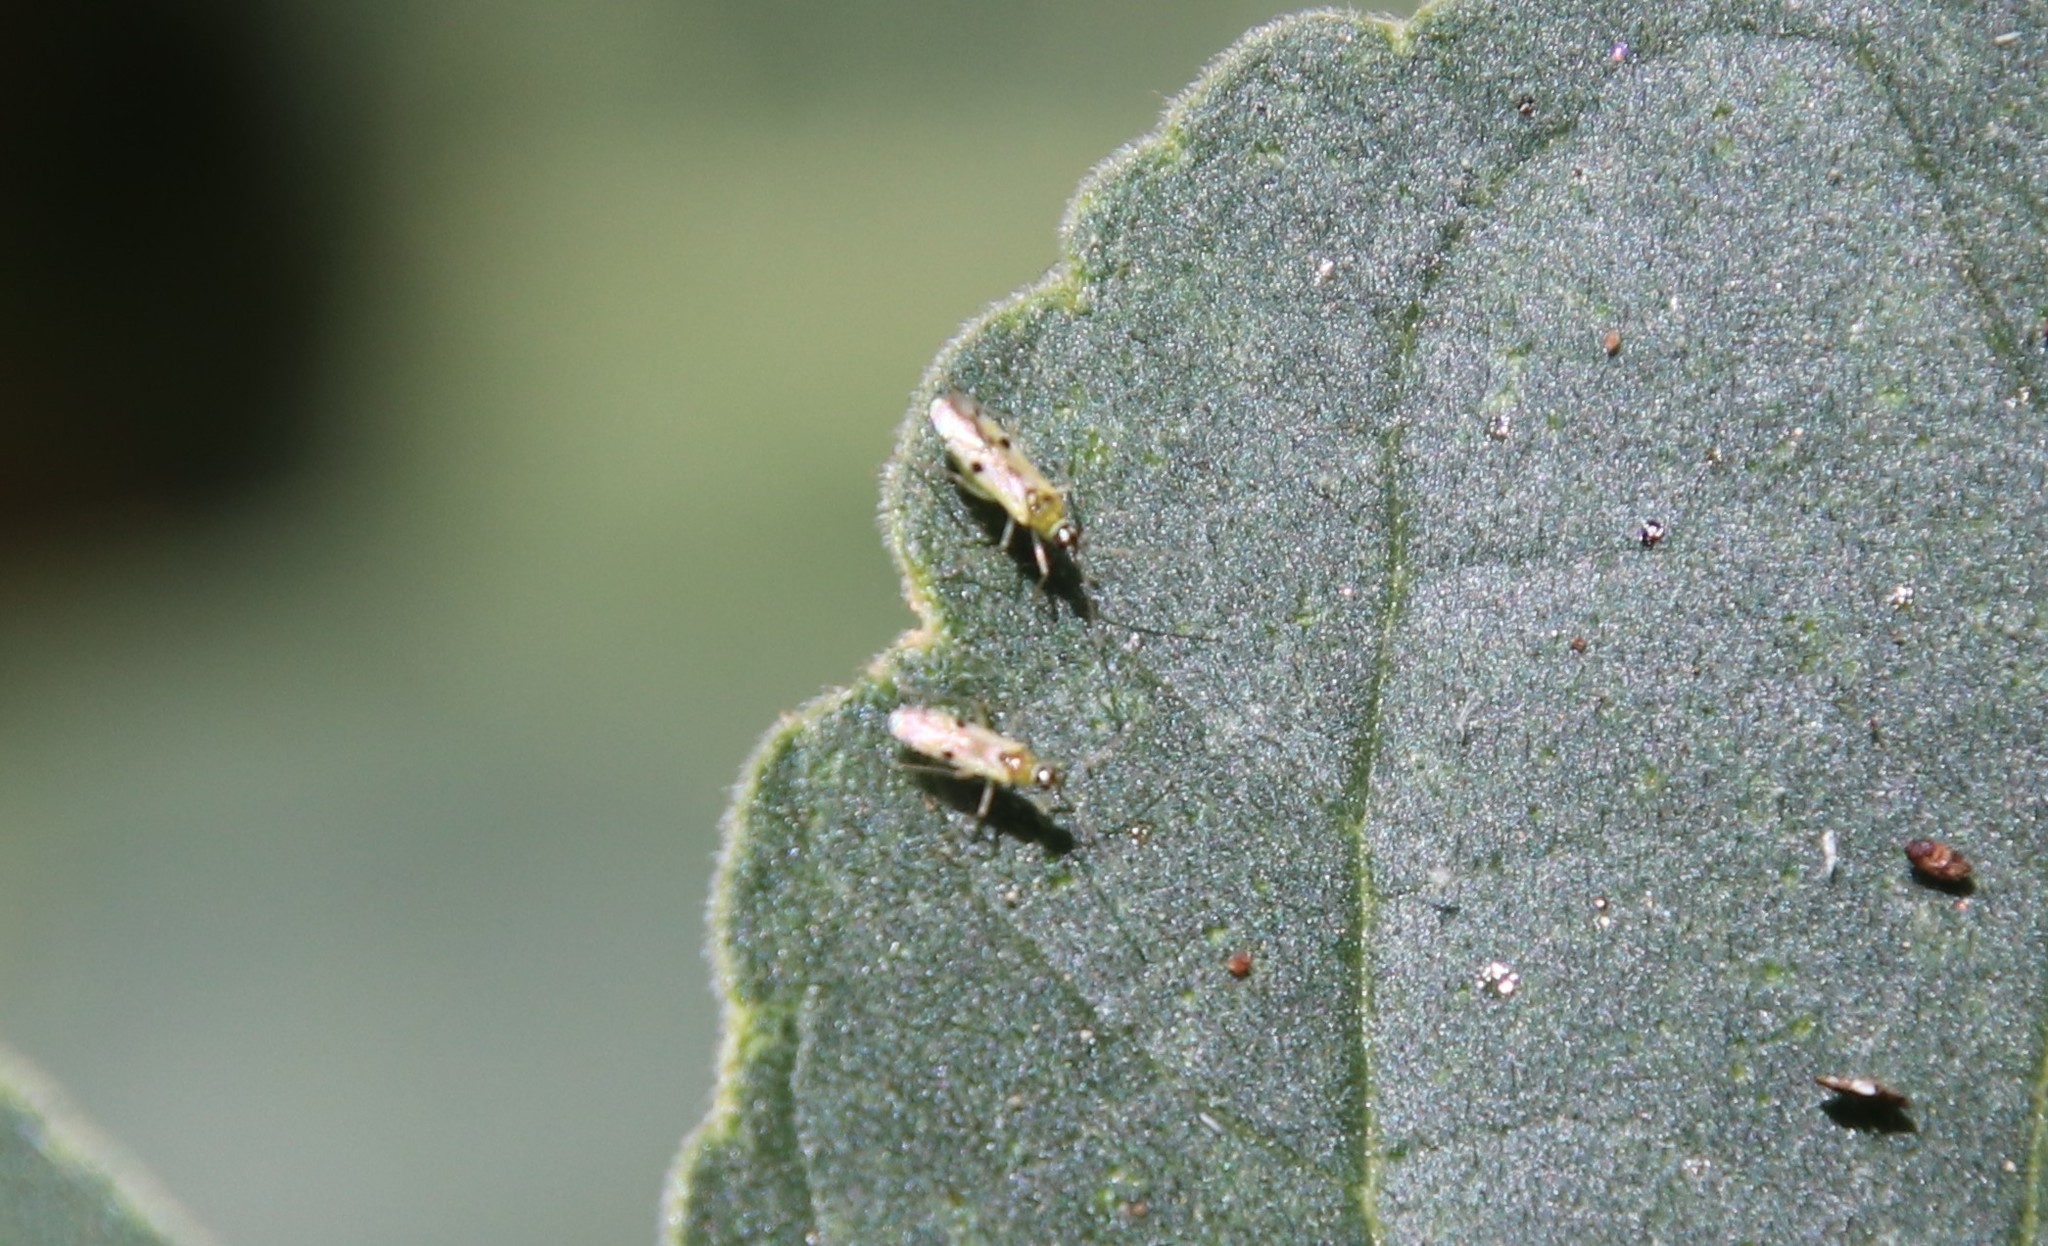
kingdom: Animalia
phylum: Arthropoda
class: Insecta
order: Hemiptera
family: Miridae
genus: Tupiocoris
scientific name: Tupiocoris notatus
